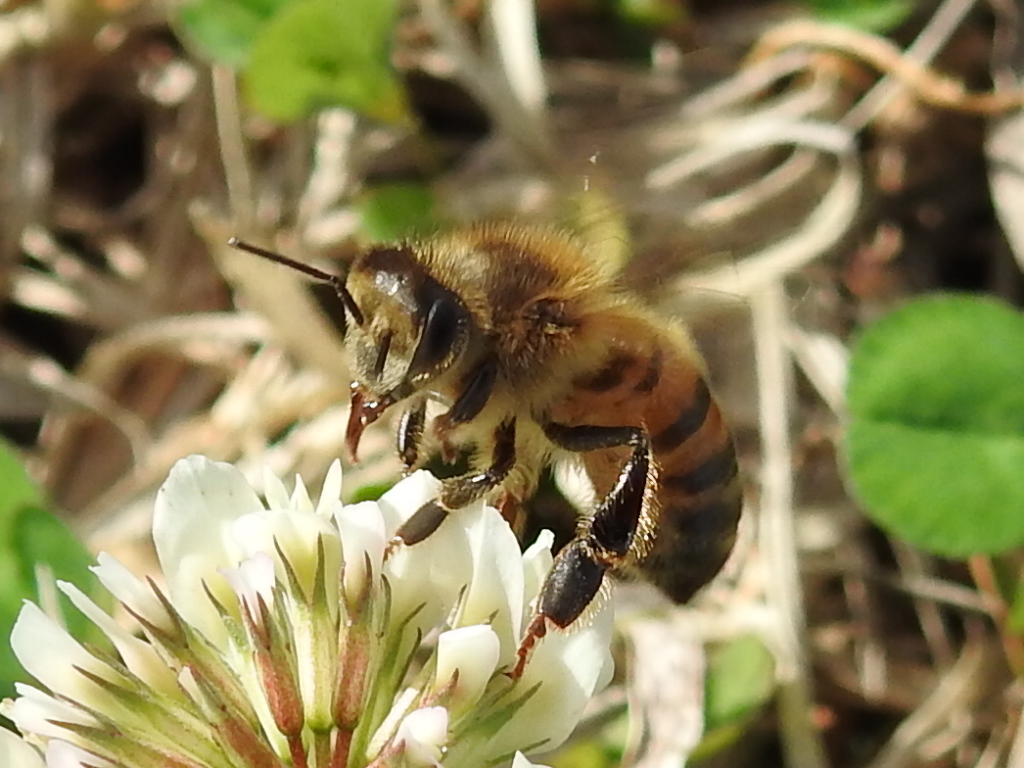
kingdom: Animalia
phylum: Arthropoda
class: Insecta
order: Hymenoptera
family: Apidae
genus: Apis
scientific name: Apis mellifera
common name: Honey bee
